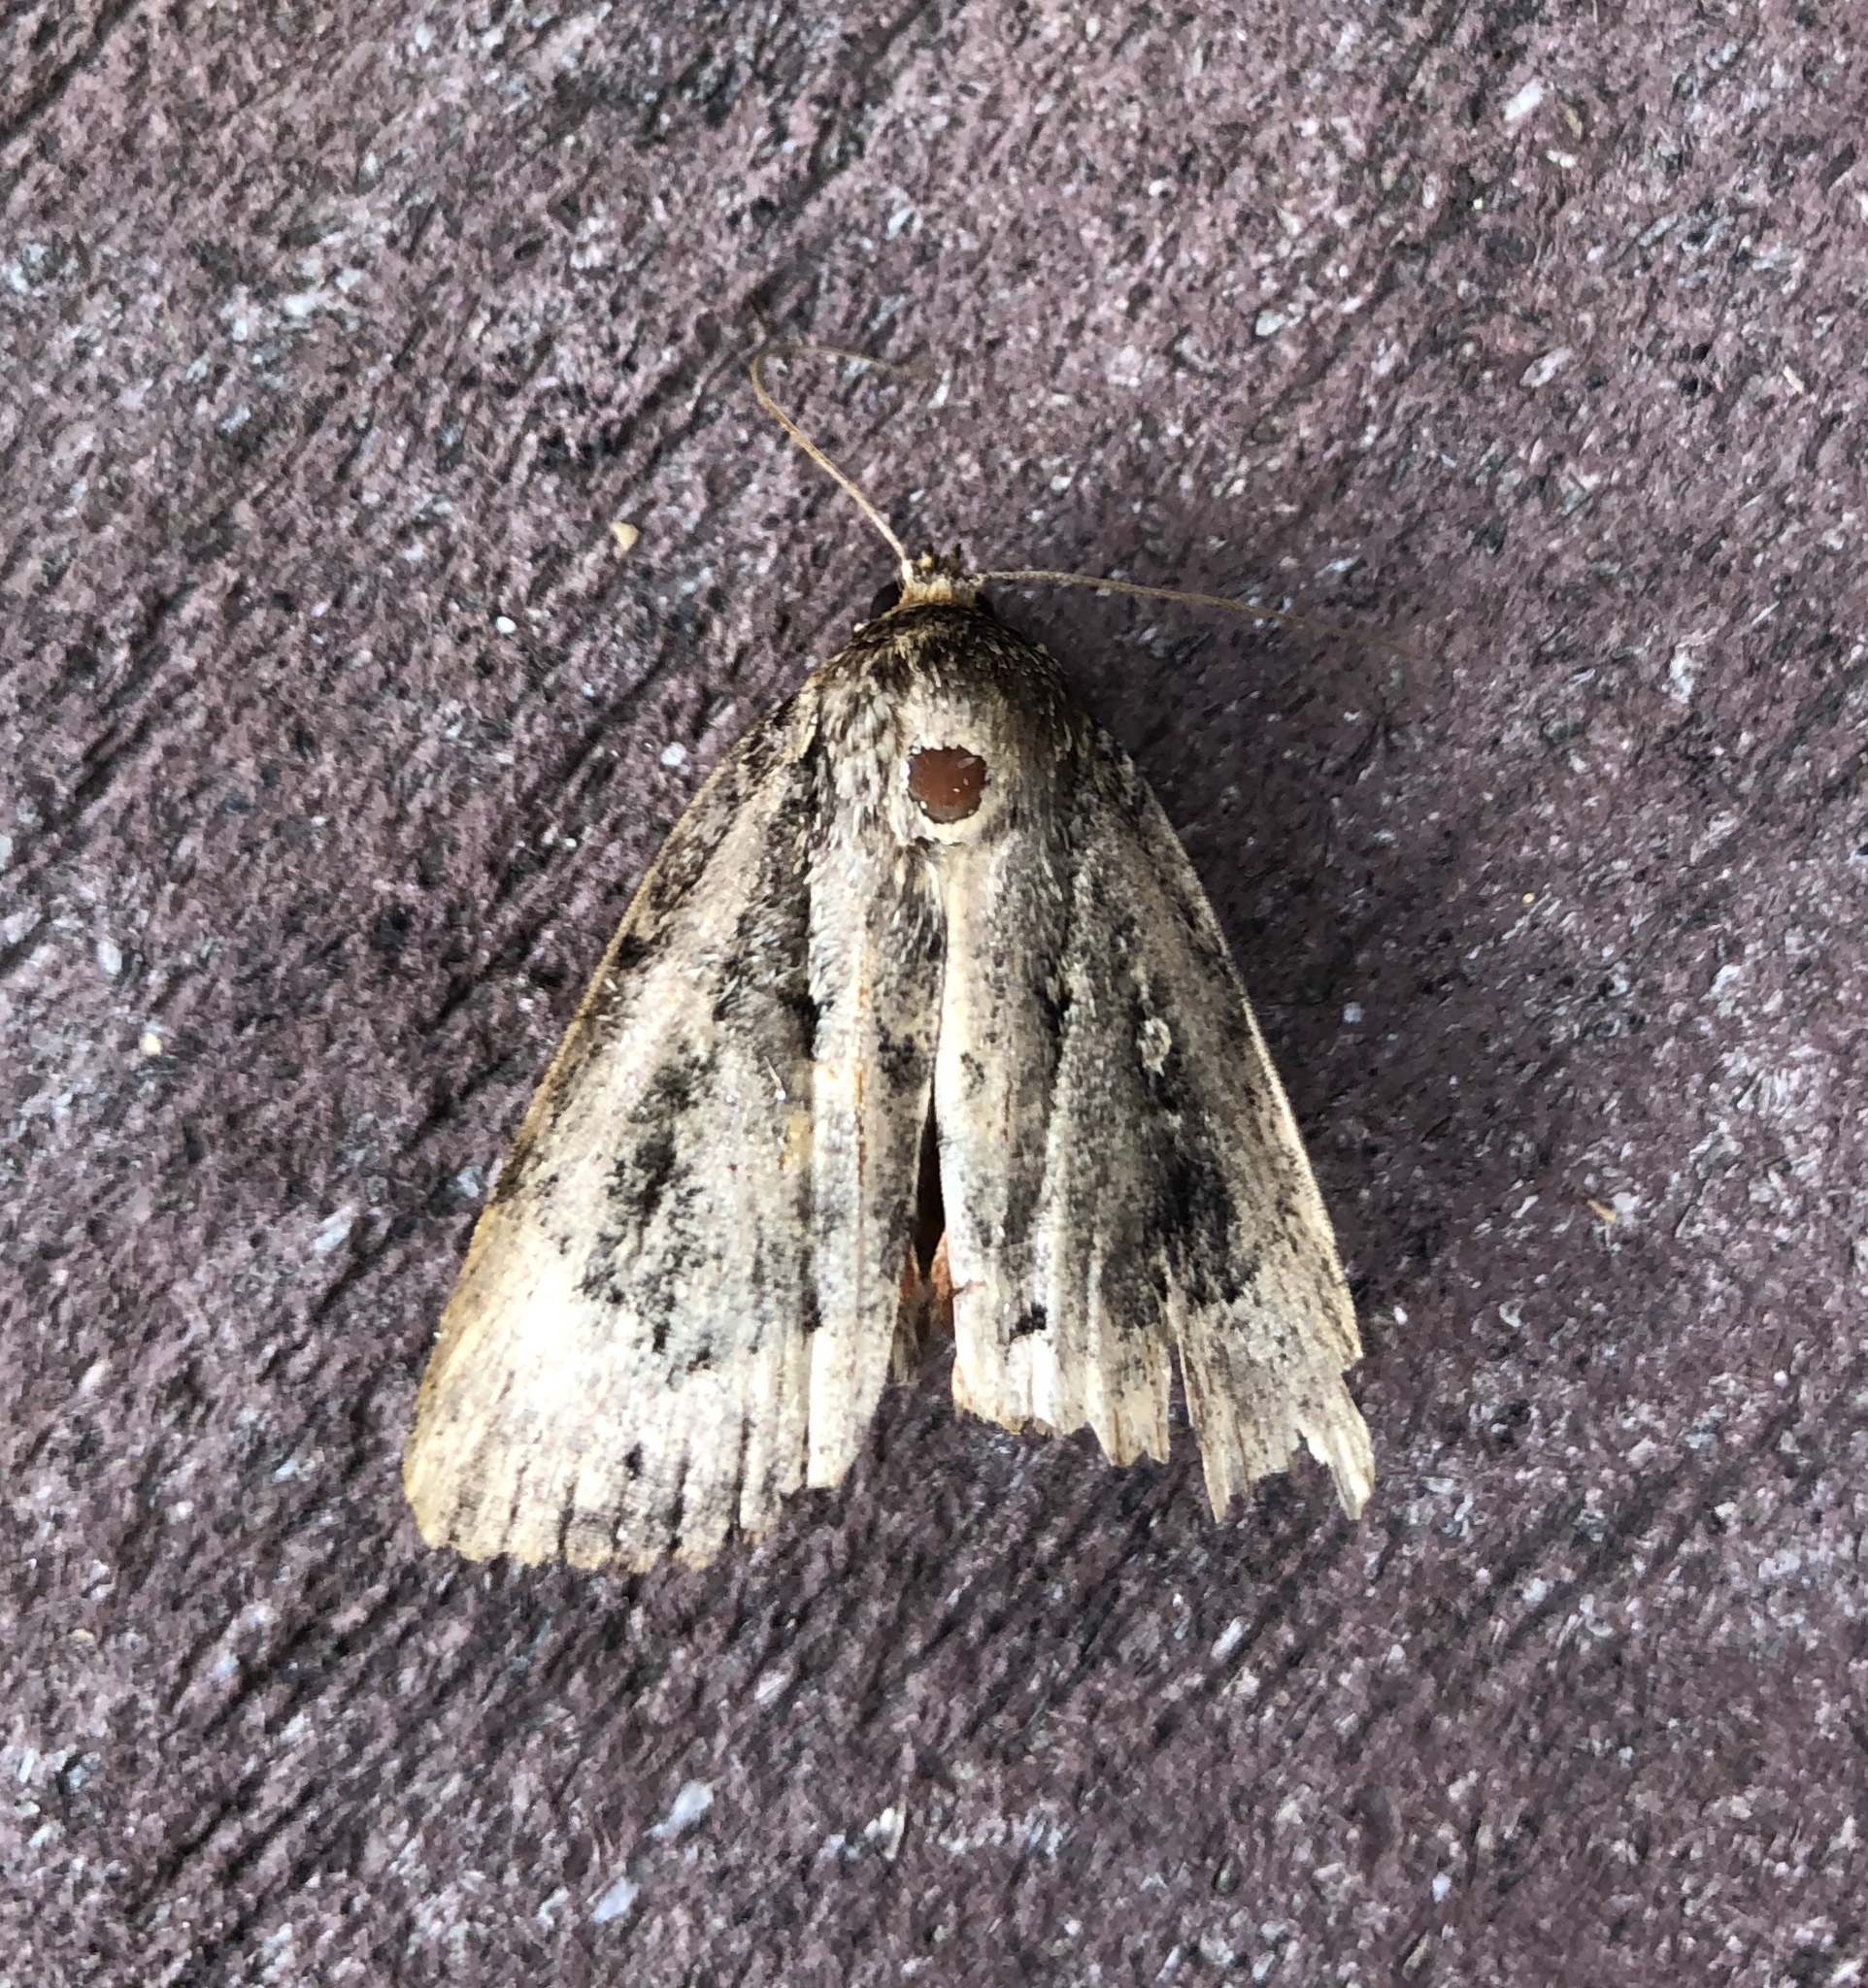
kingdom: Animalia
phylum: Arthropoda
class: Insecta
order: Lepidoptera
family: Noctuidae
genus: Amphipyra
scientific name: Amphipyra pyramidoides
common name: American copper underwing
